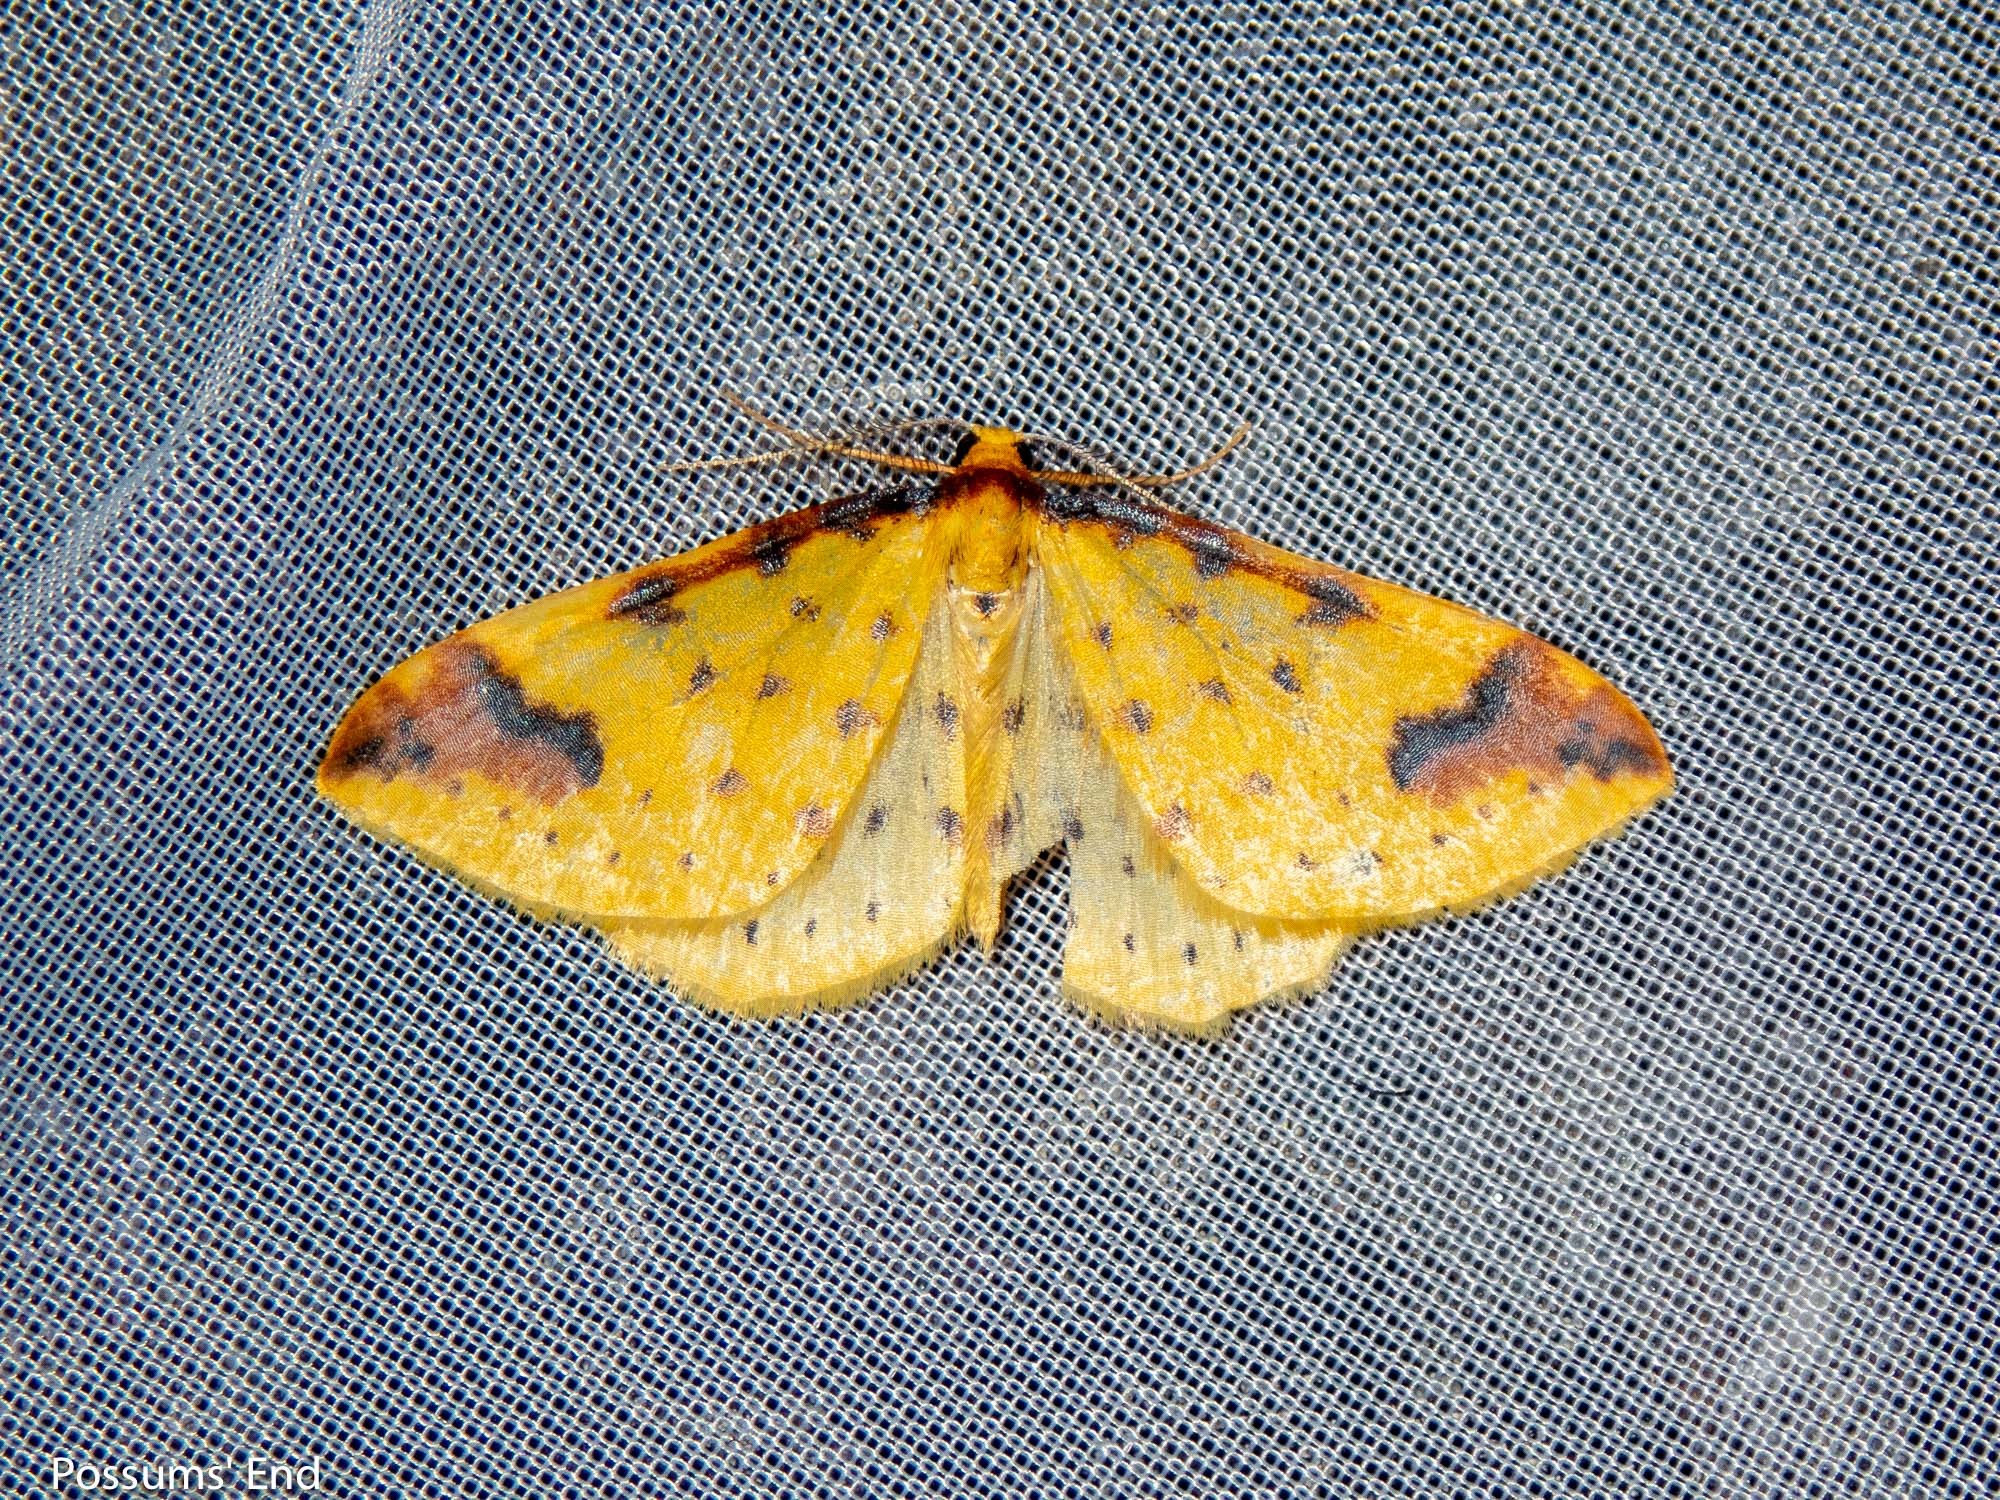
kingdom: Animalia
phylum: Arthropoda
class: Insecta
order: Lepidoptera
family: Geometridae
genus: Orthoclydon
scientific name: Orthoclydon chlorias
